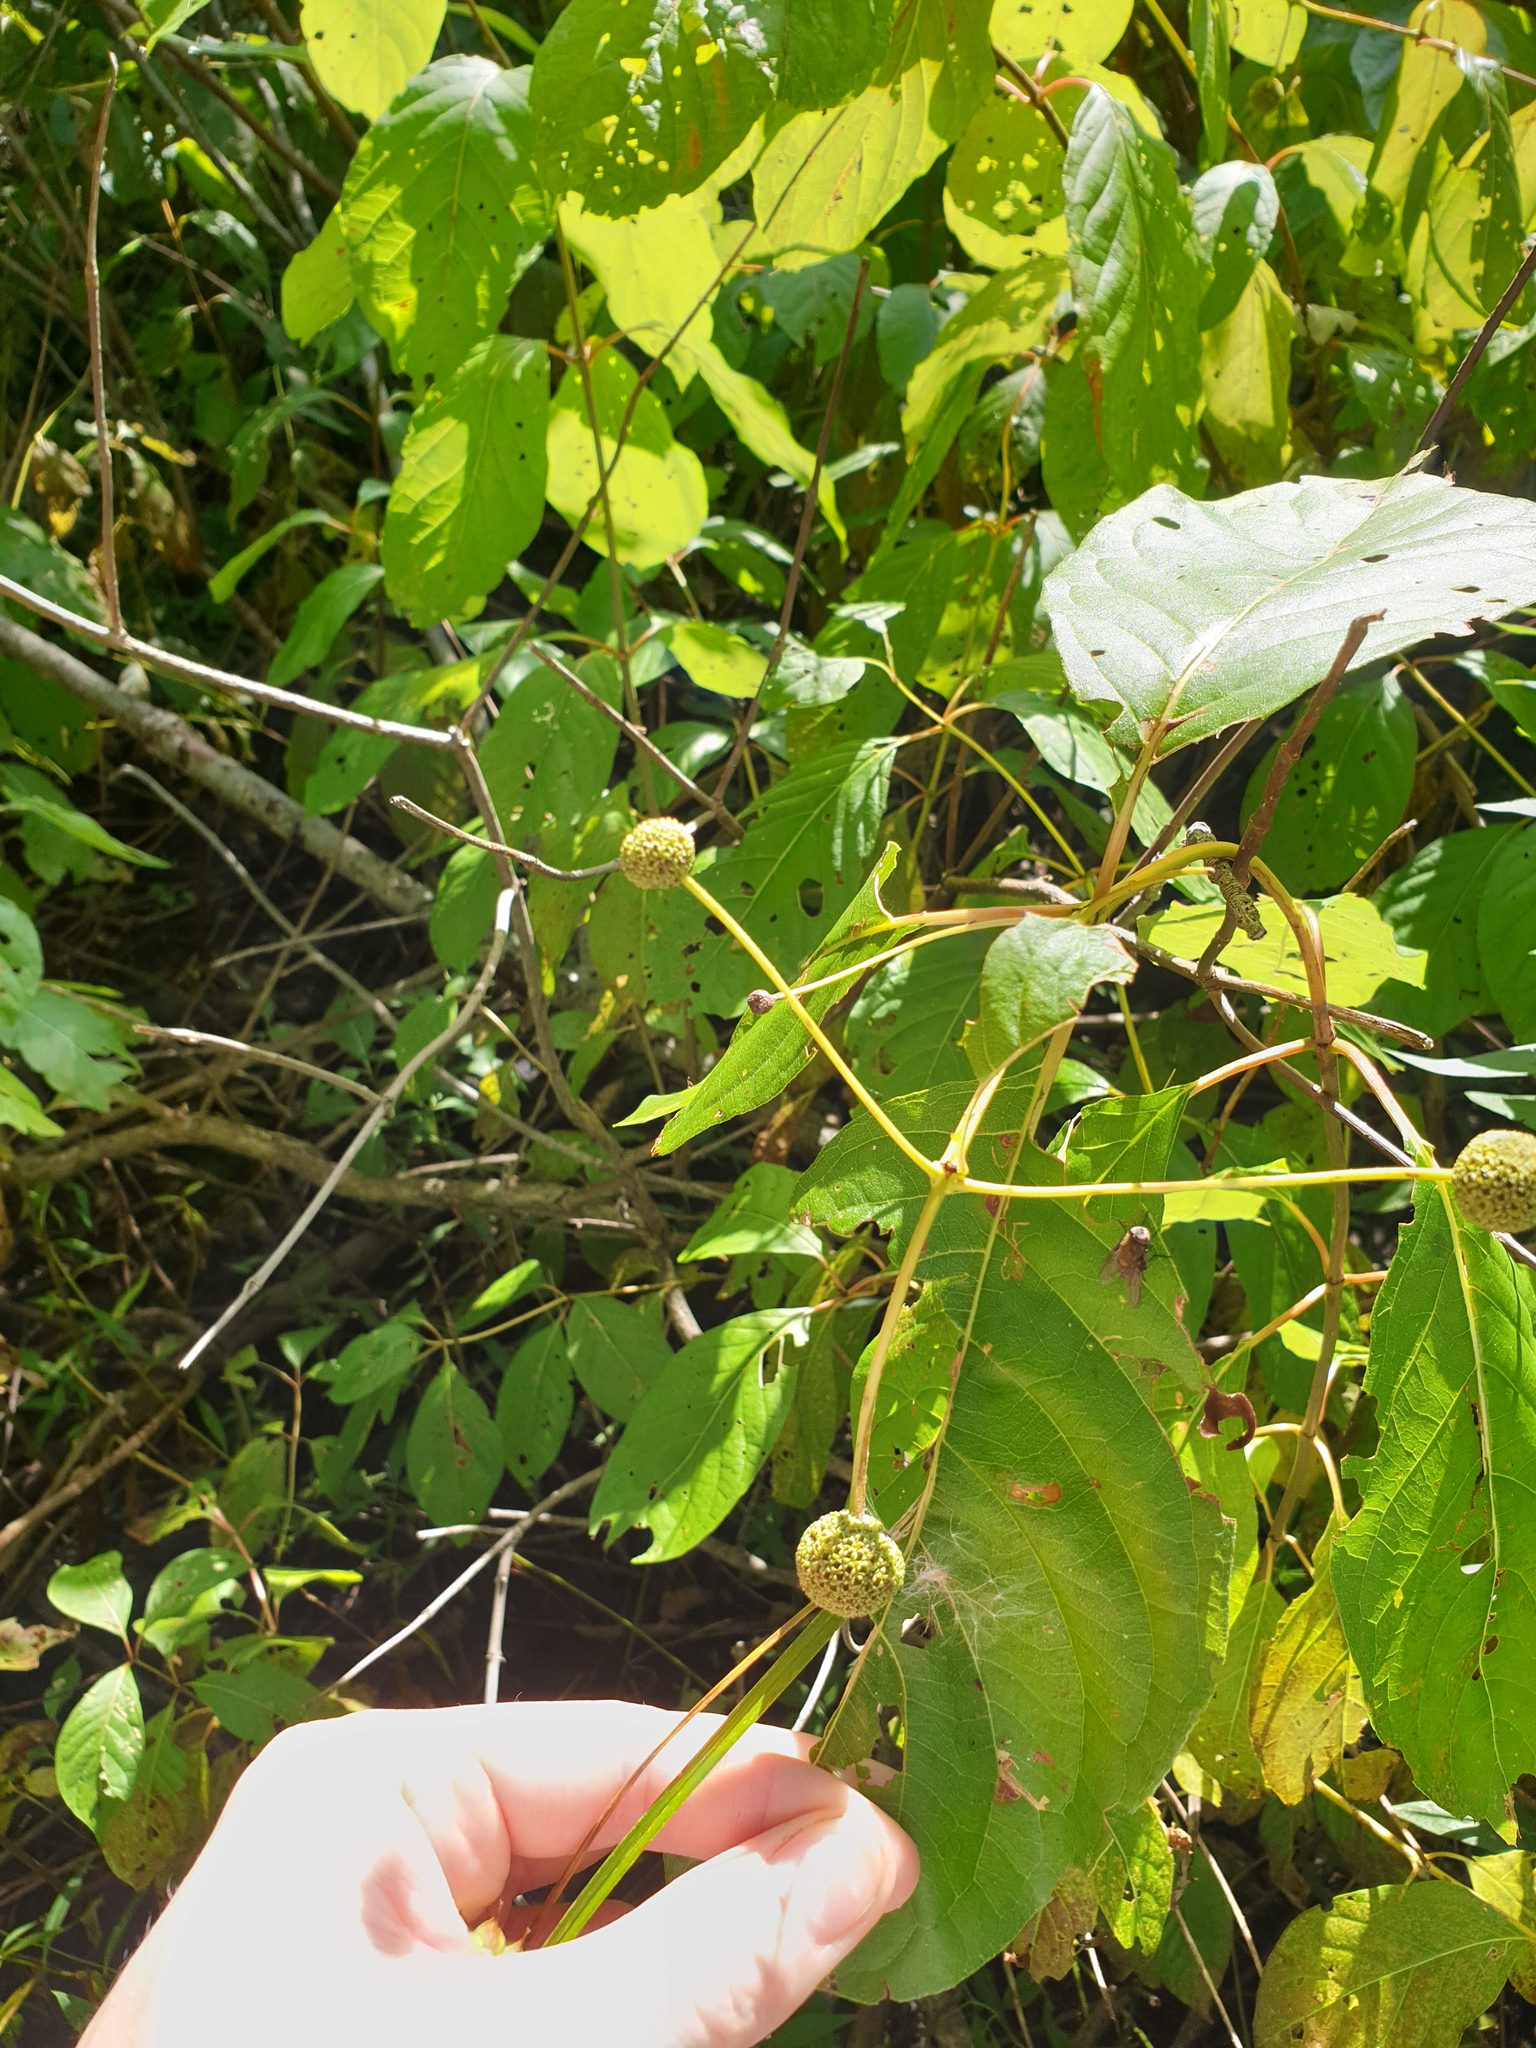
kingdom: Plantae
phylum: Tracheophyta
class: Magnoliopsida
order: Gentianales
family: Rubiaceae
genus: Cephalanthus
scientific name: Cephalanthus occidentalis
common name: Button-willow
